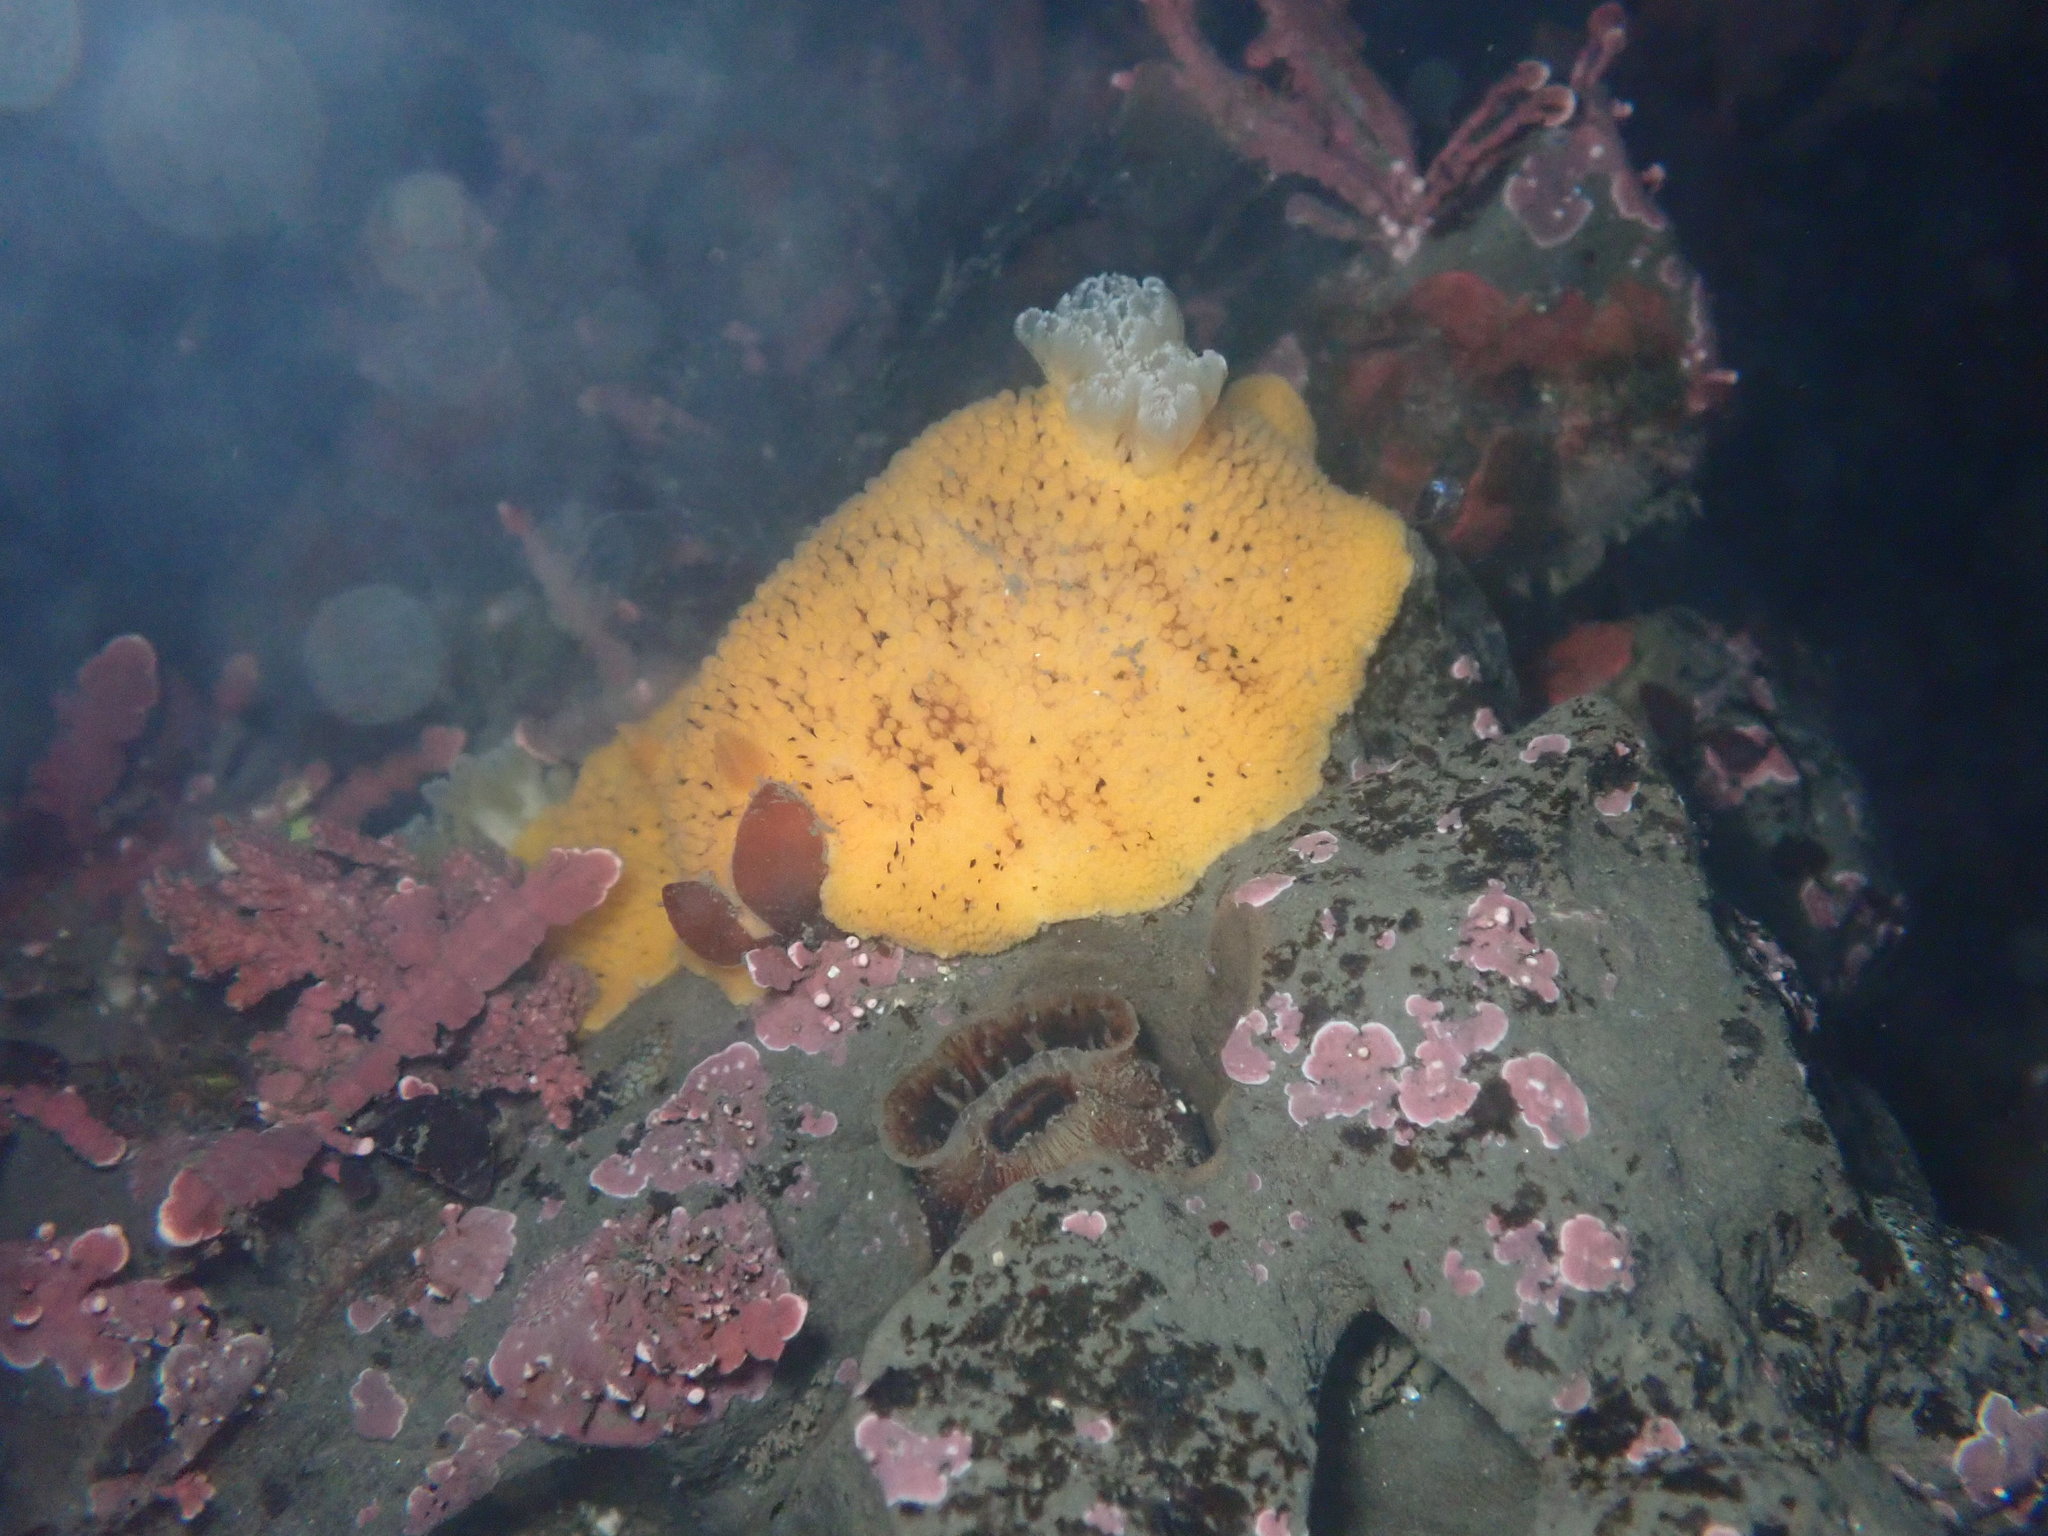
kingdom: Animalia
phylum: Mollusca
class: Gastropoda
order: Nudibranchia
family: Discodorididae
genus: Peltodoris
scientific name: Peltodoris nobilis
